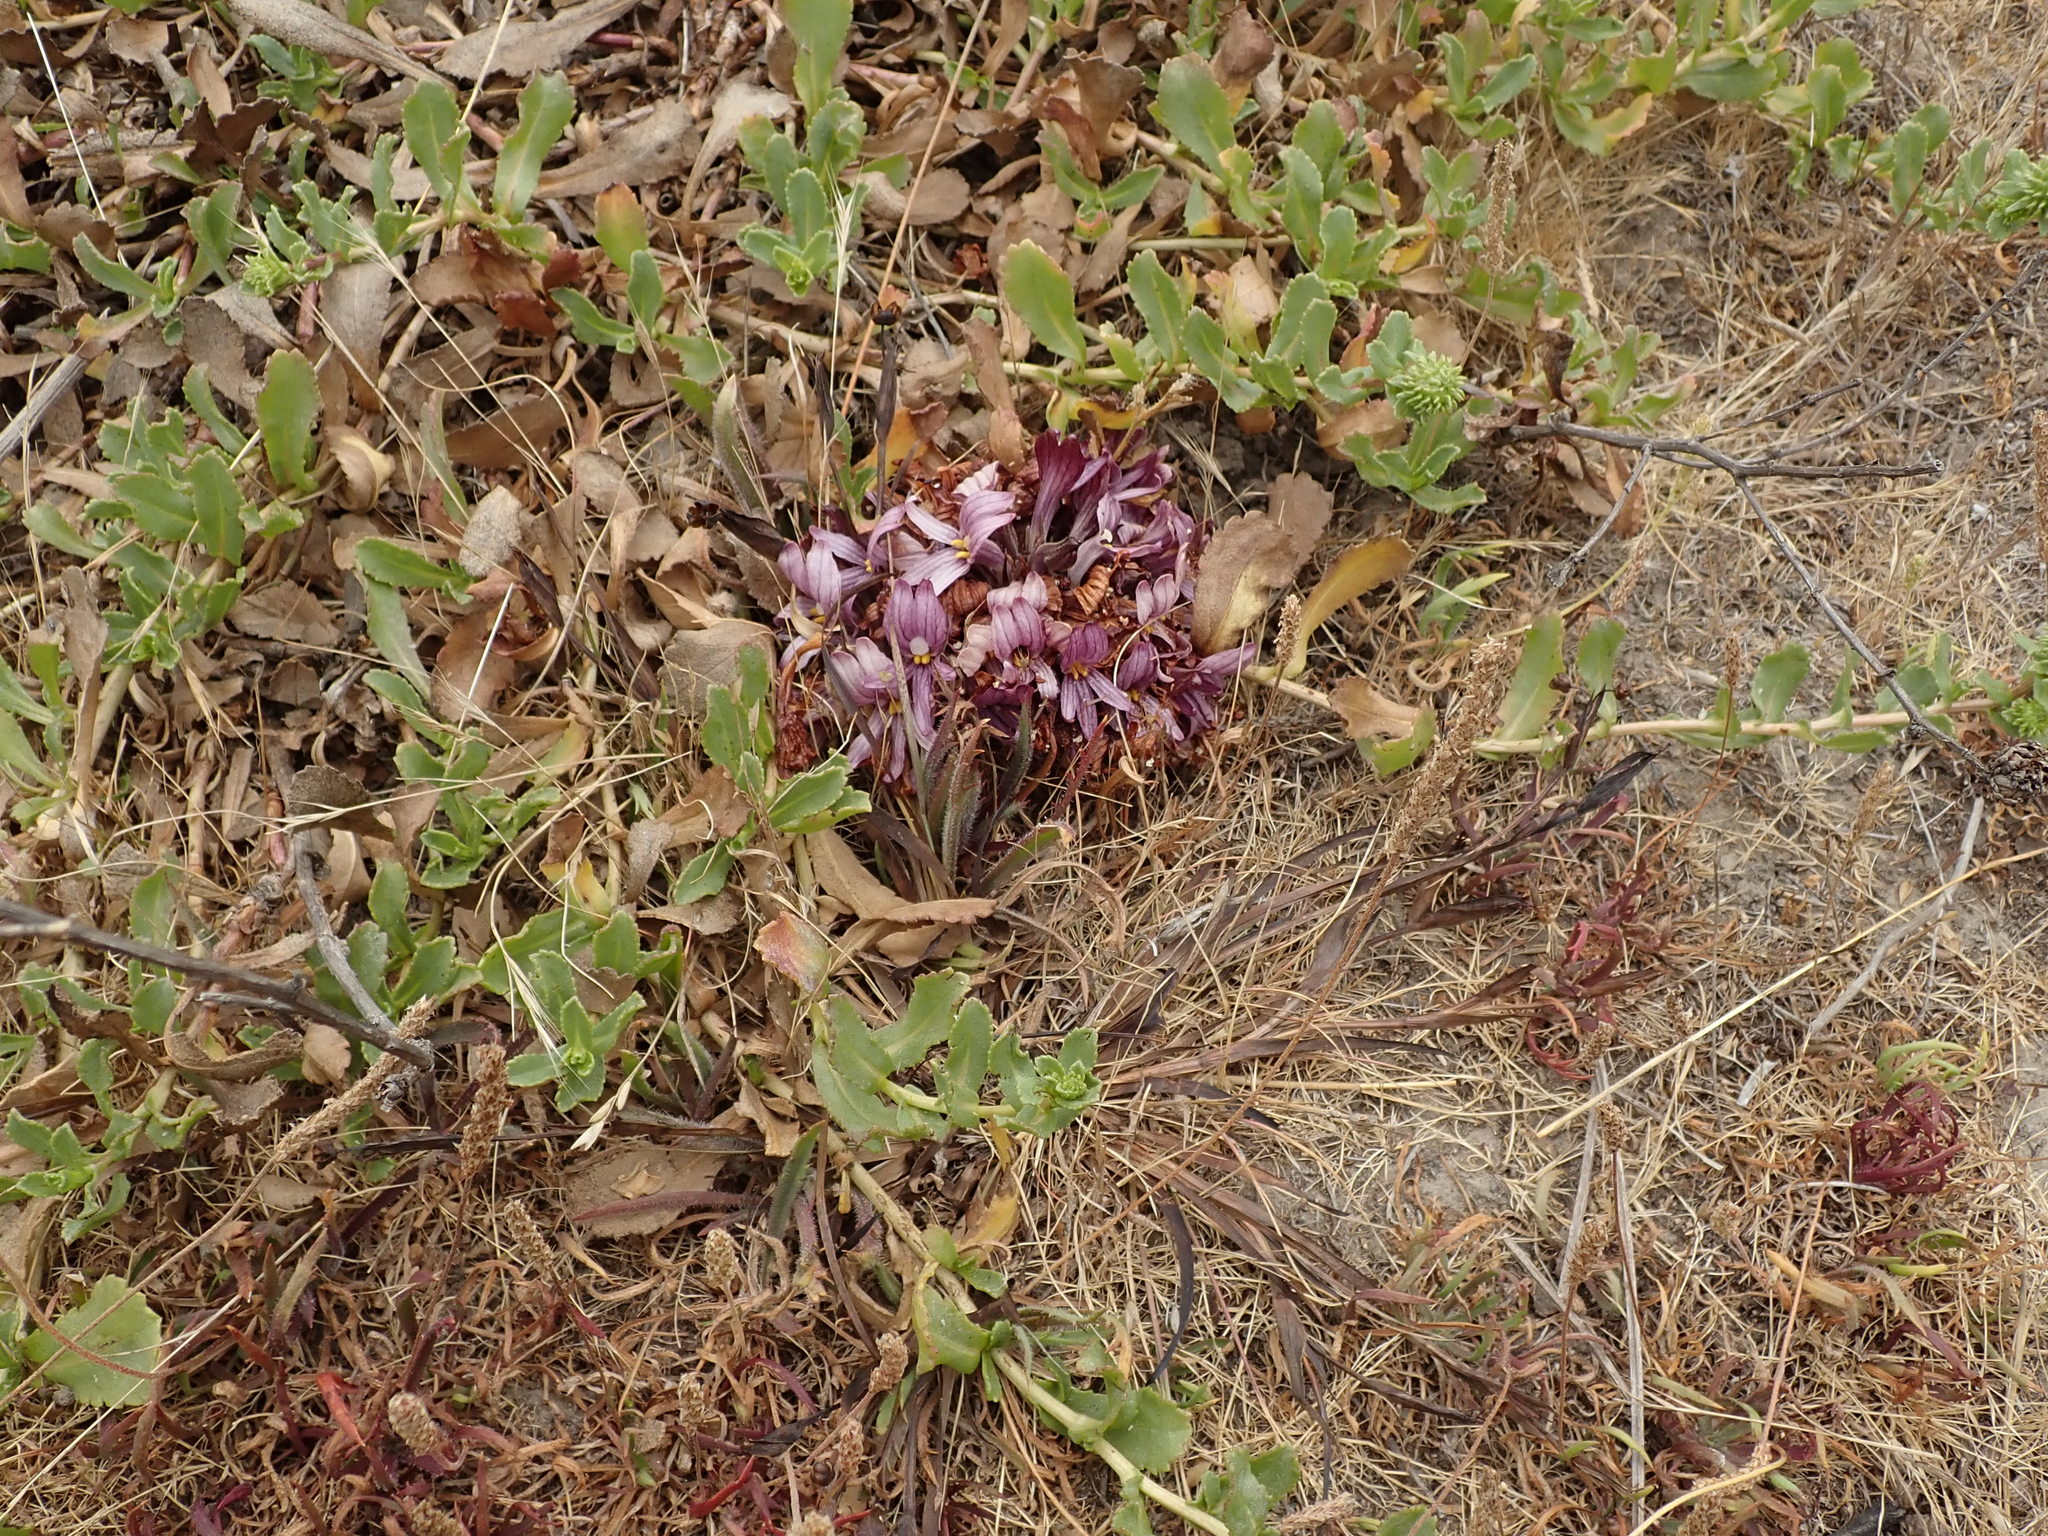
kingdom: Plantae
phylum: Tracheophyta
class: Magnoliopsida
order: Lamiales
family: Orobanchaceae
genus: Aphyllon
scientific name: Aphyllon californicum
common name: California broomrape
